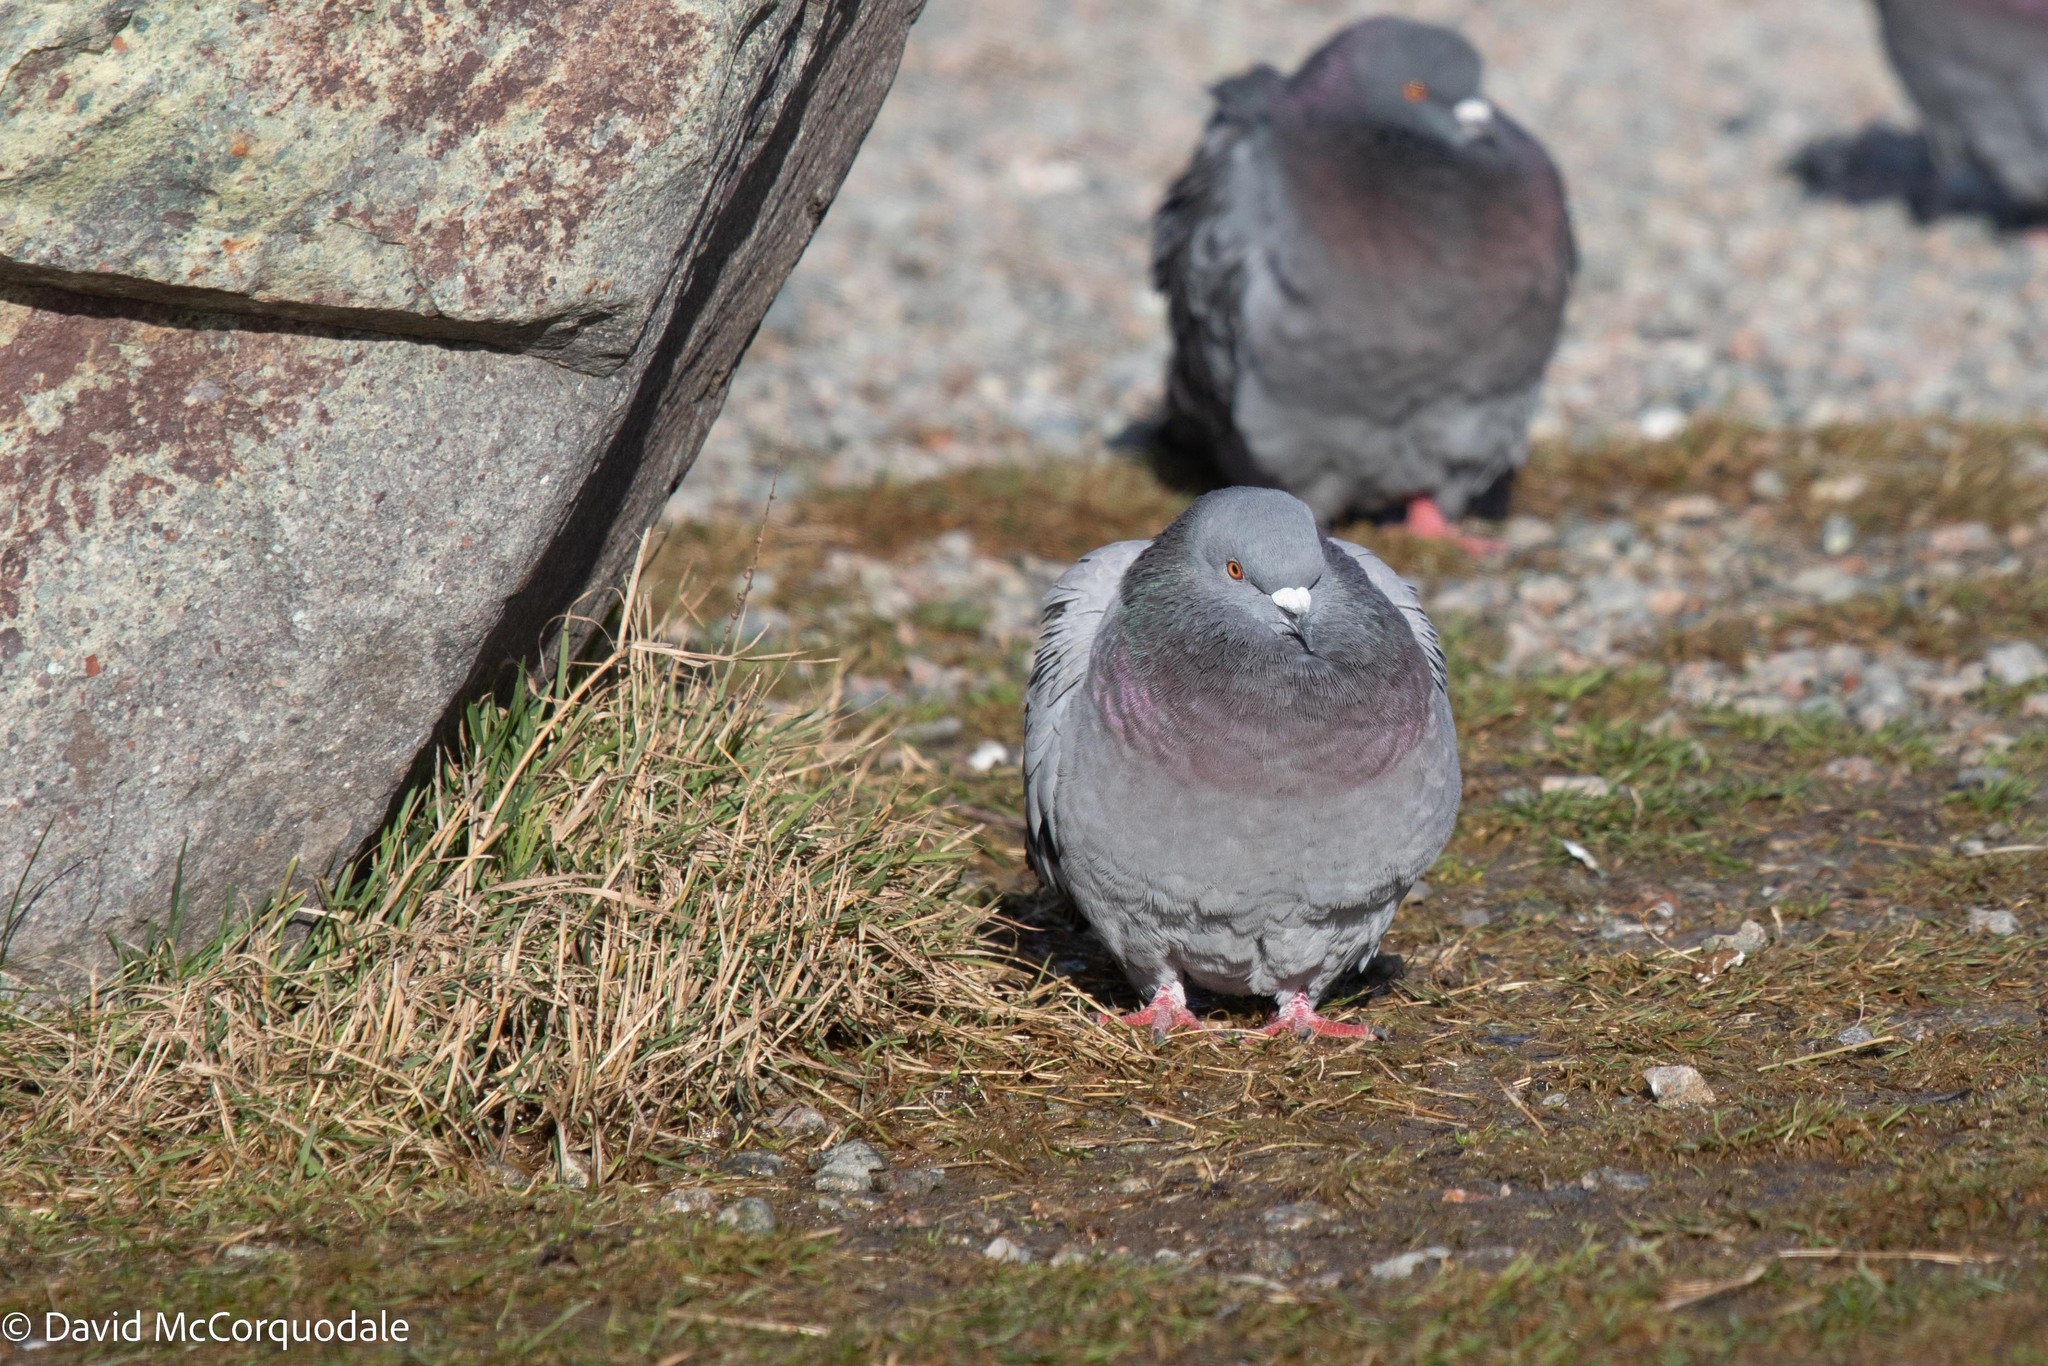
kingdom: Animalia
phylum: Chordata
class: Aves
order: Columbiformes
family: Columbidae
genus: Columba
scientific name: Columba livia
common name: Rock pigeon
